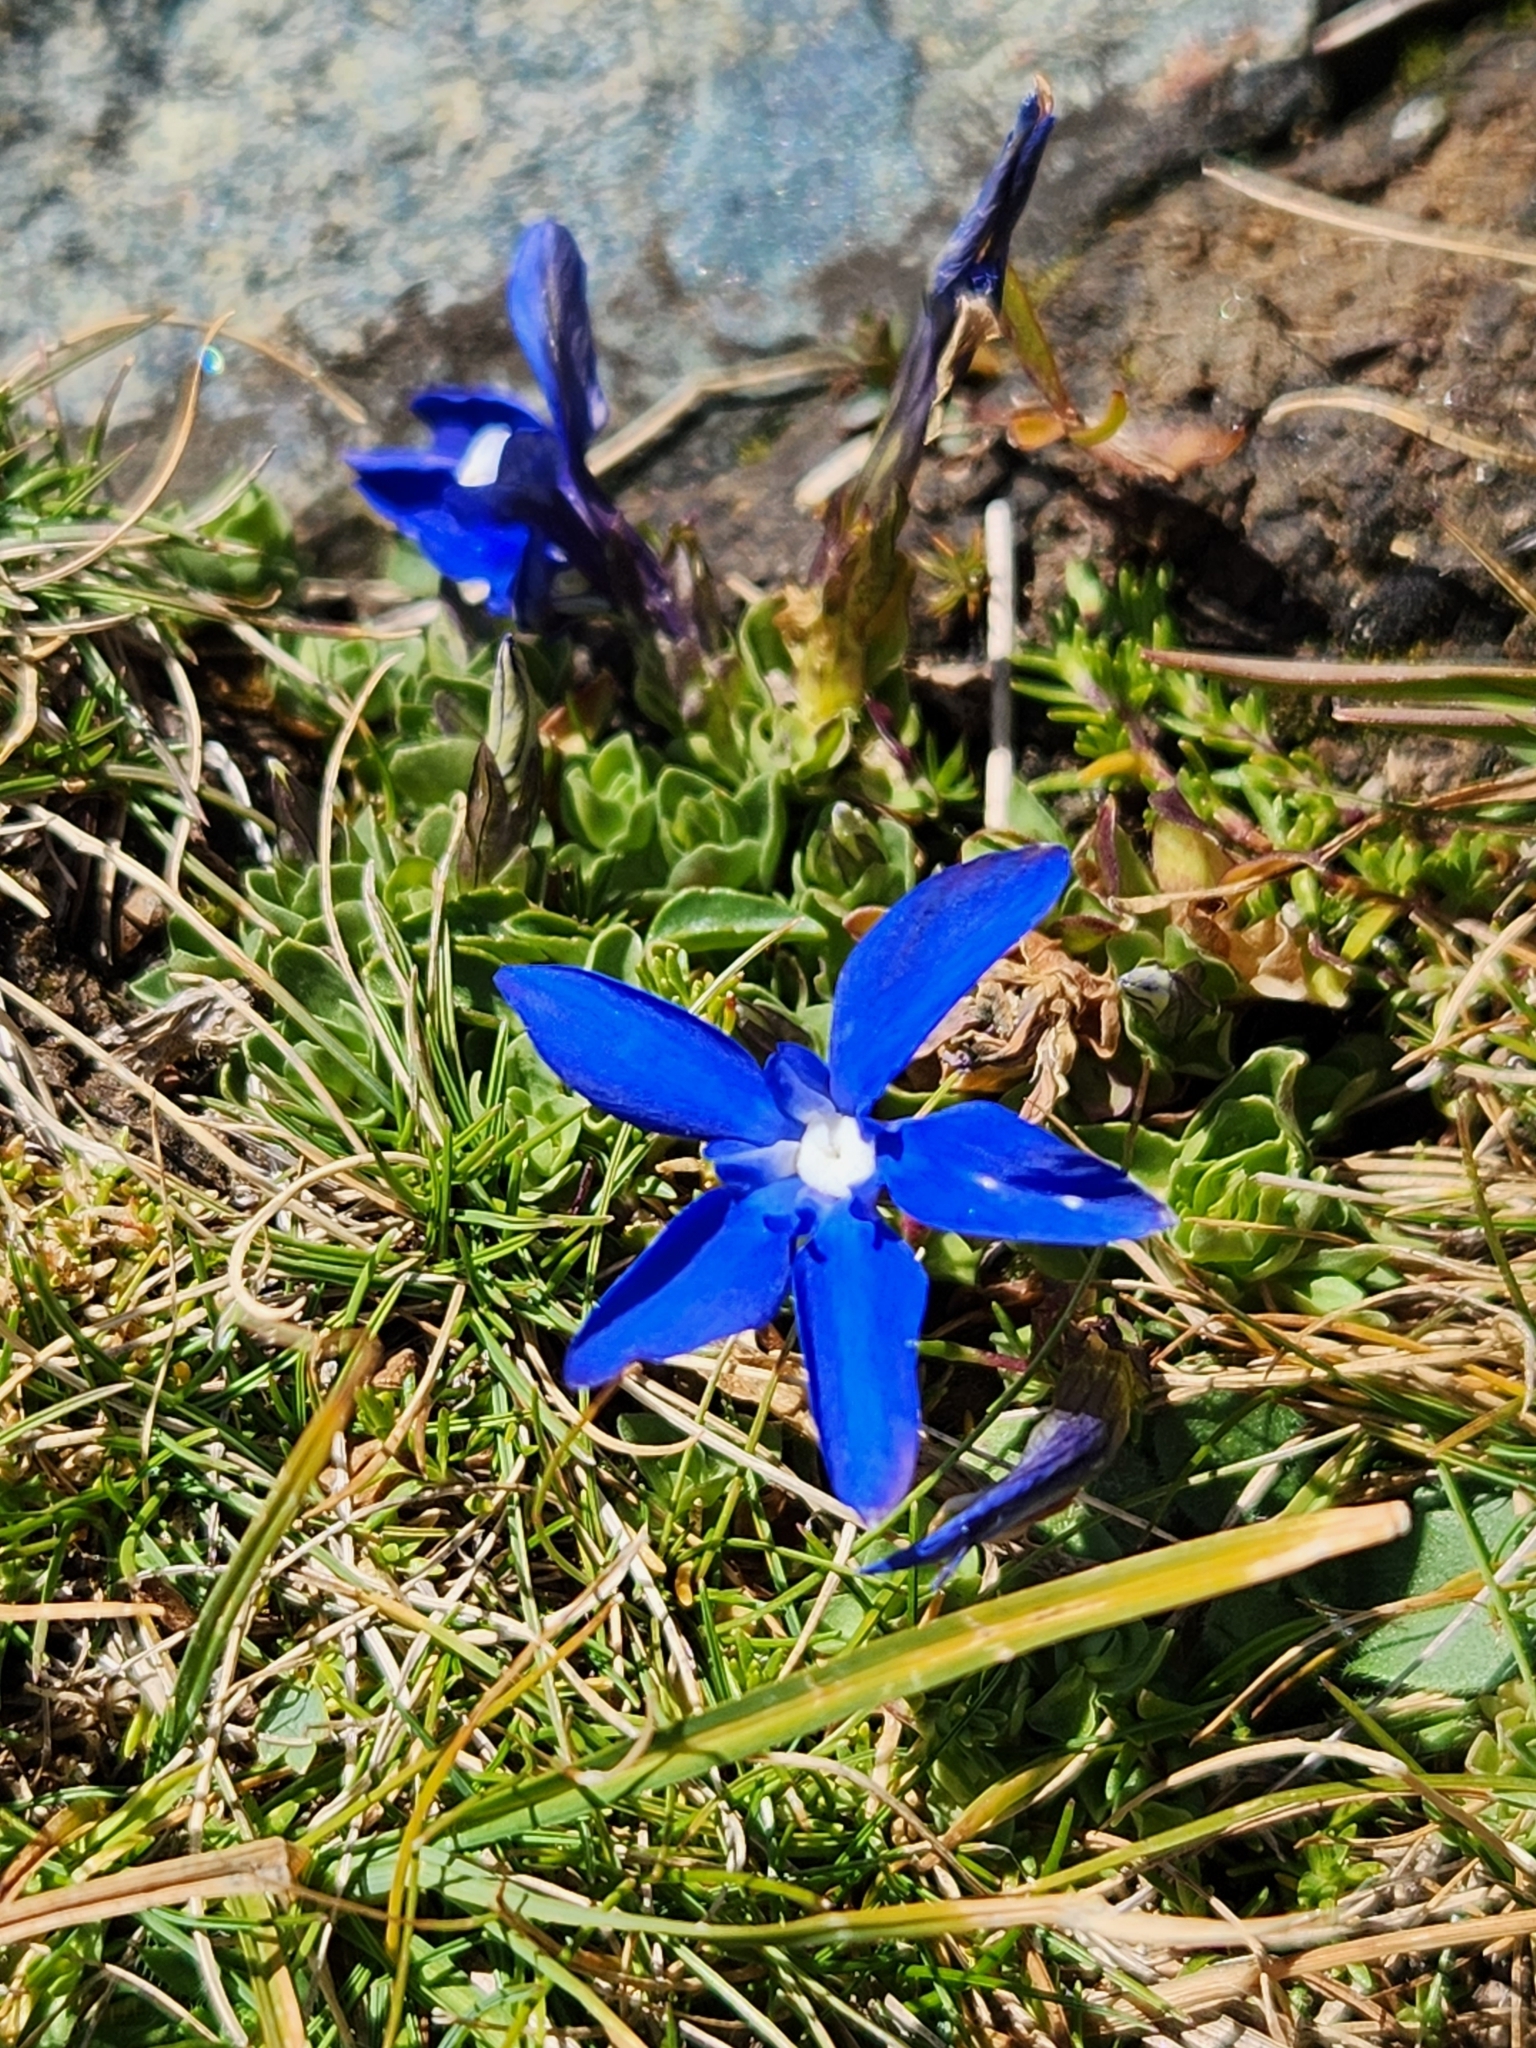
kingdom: Plantae
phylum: Tracheophyta
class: Magnoliopsida
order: Gentianales
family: Gentianaceae
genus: Gentiana
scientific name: Gentiana terglouensis
